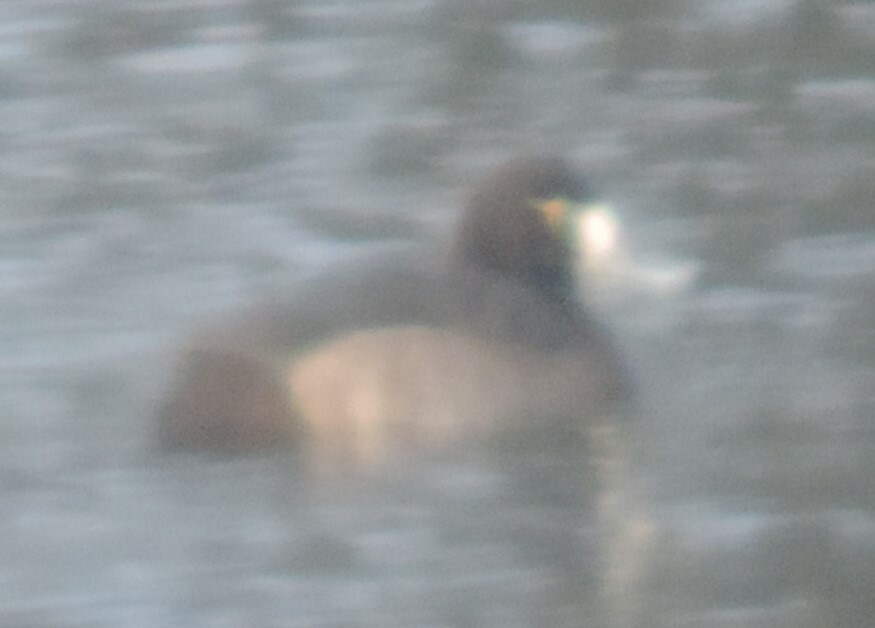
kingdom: Animalia
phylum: Chordata
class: Aves
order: Anseriformes
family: Anatidae
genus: Aythya
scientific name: Aythya marila
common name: Greater scaup
